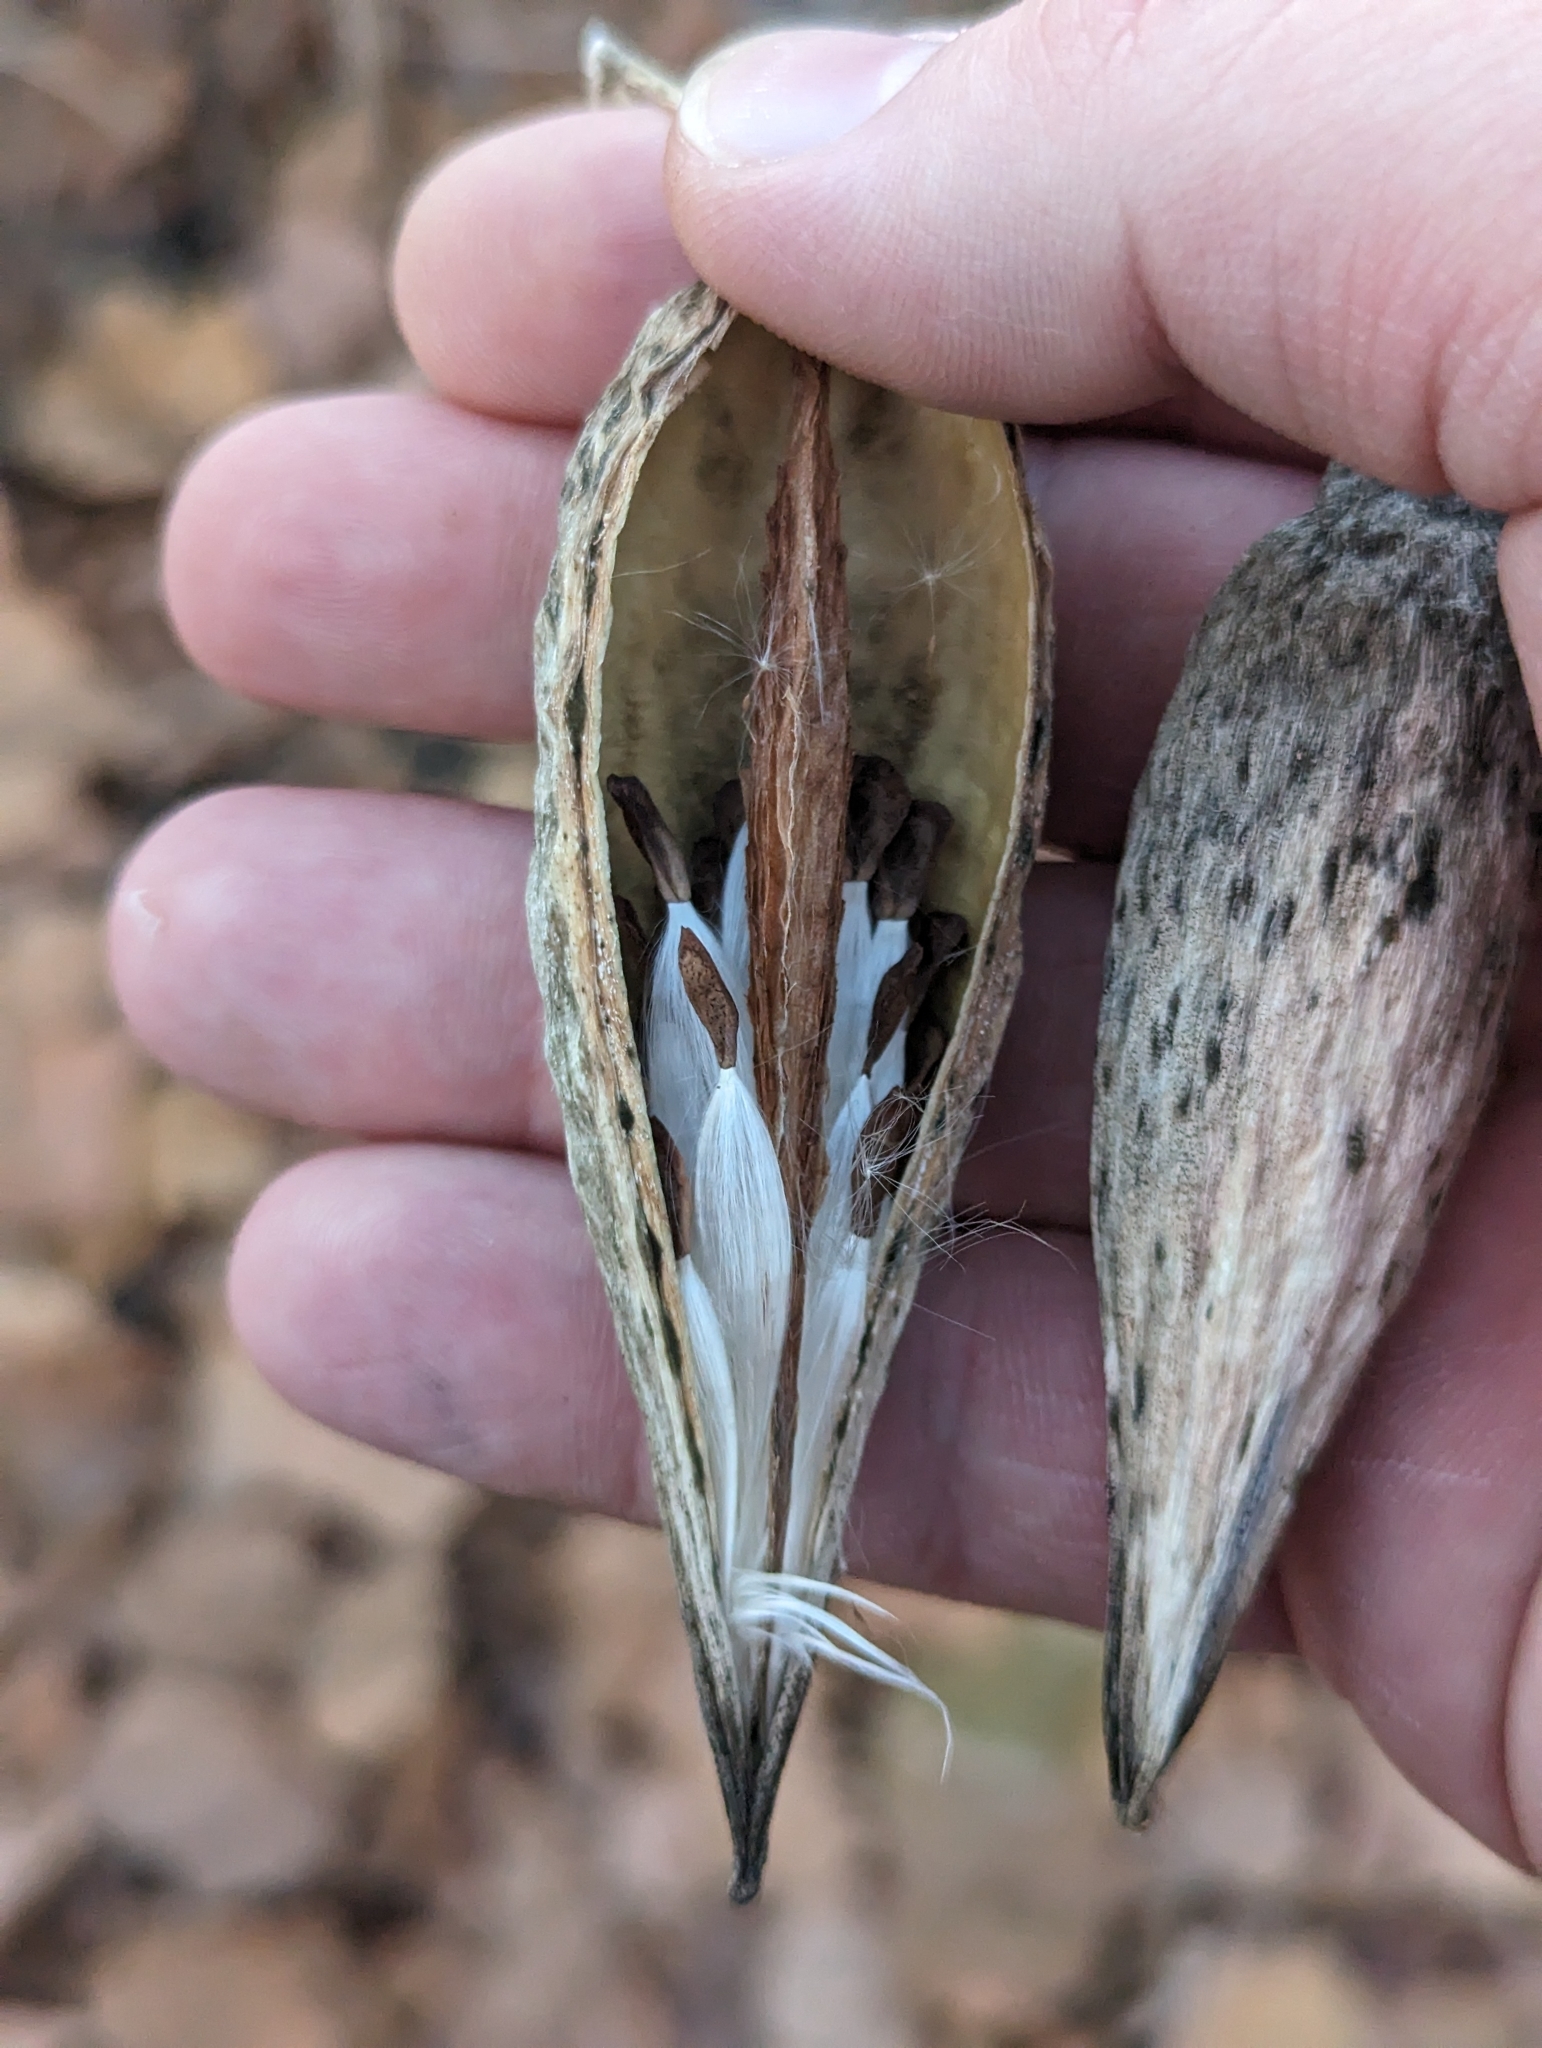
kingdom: Plantae
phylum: Tracheophyta
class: Magnoliopsida
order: Gentianales
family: Apocynaceae
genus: Cynanchum
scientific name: Cynanchum laeve
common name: Sandvine
